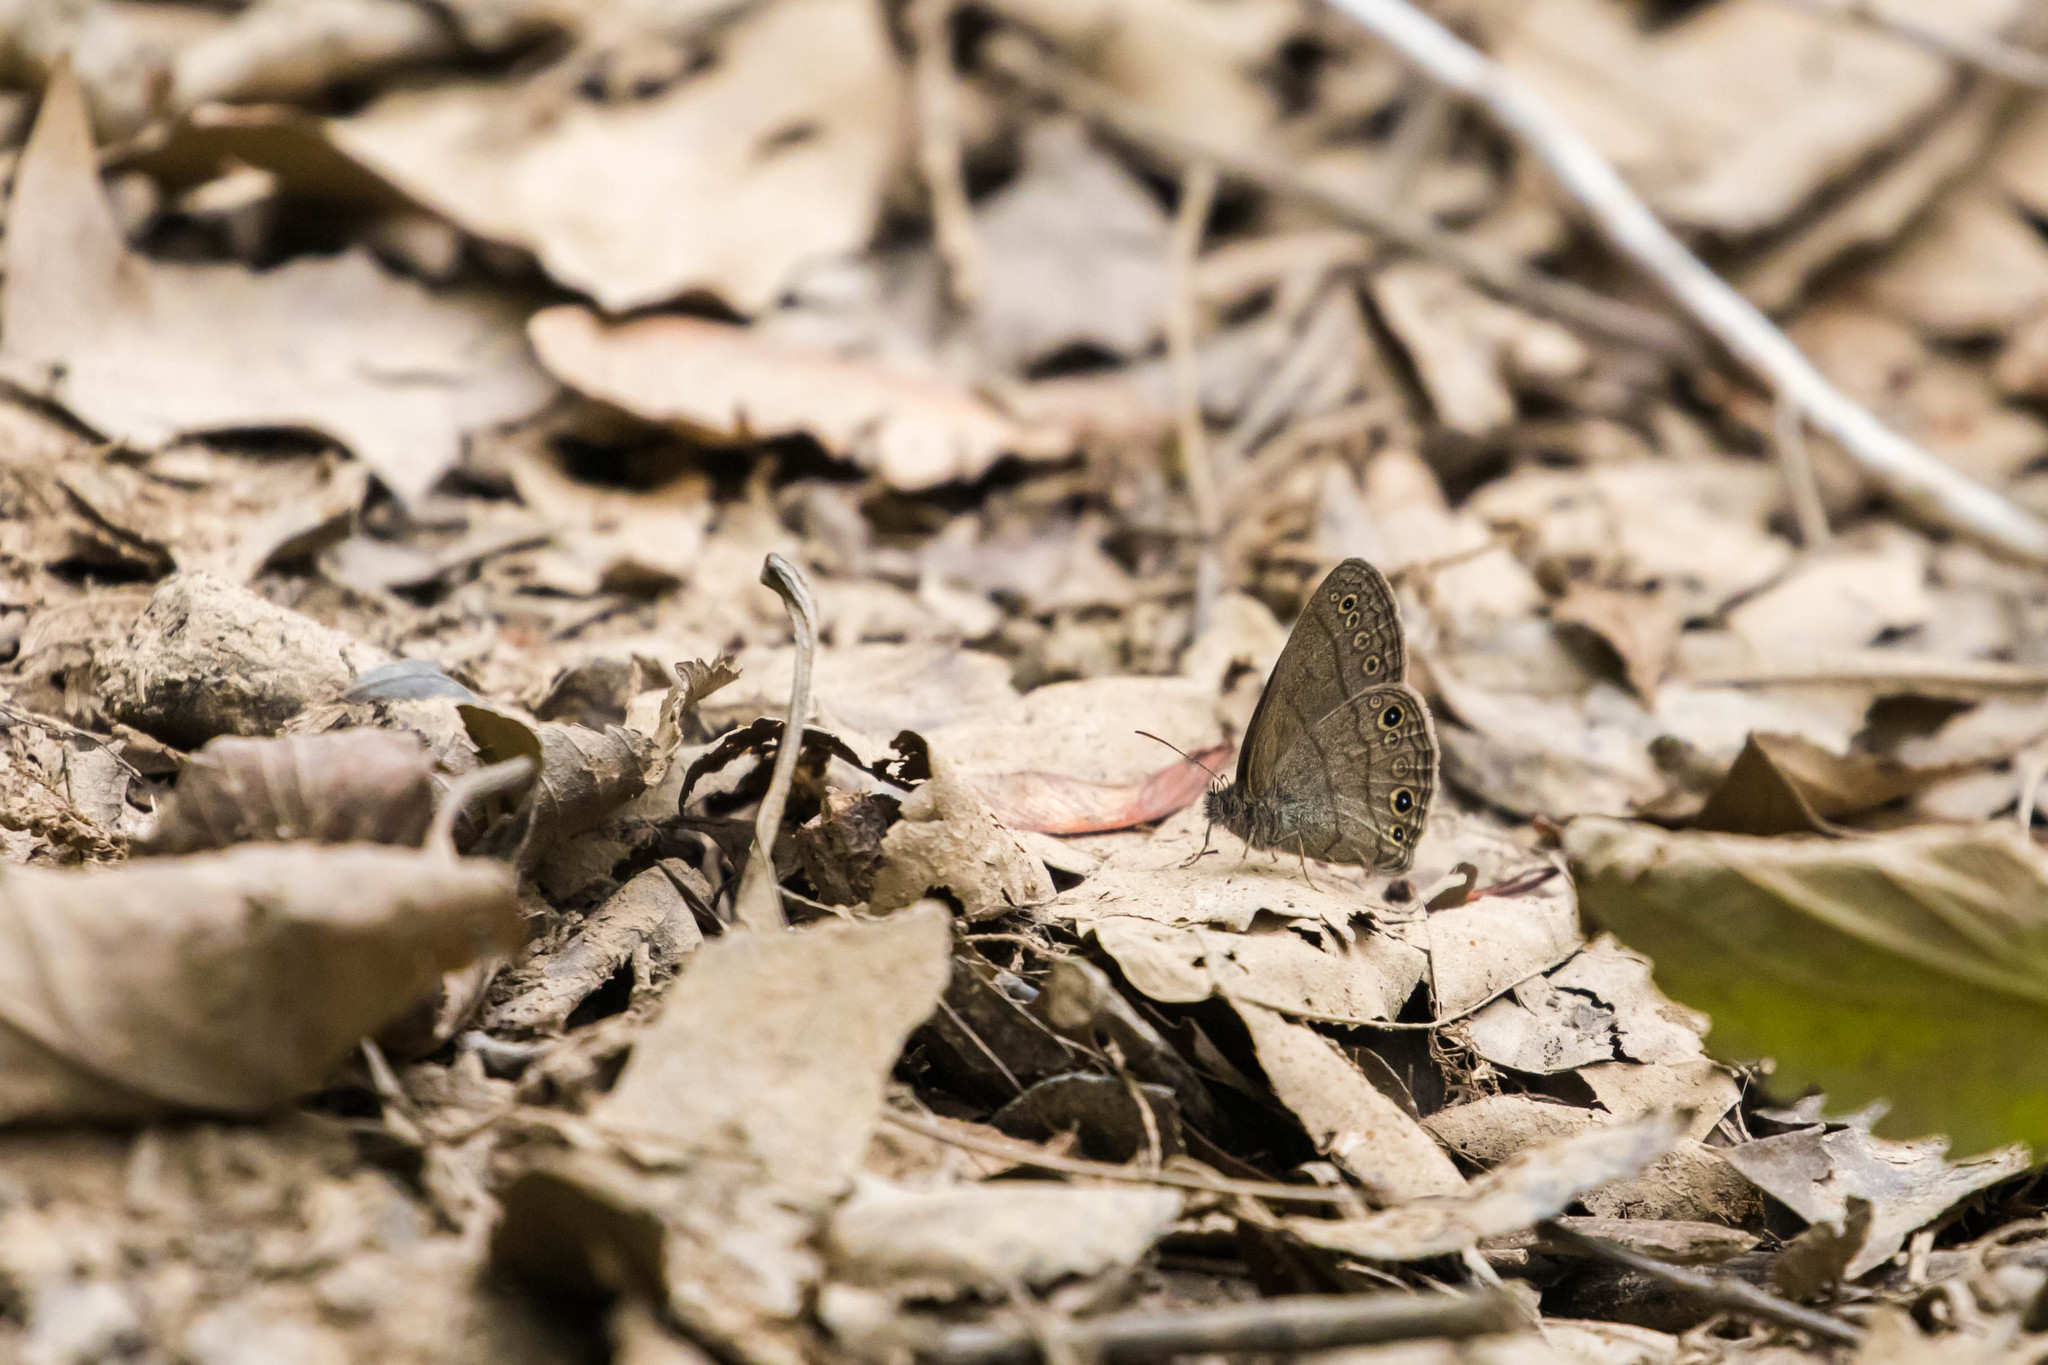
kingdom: Animalia
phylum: Arthropoda
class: Insecta
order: Lepidoptera
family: Nymphalidae
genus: Hermeuptychia
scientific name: Hermeuptychia hermes
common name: Hermes satyr
